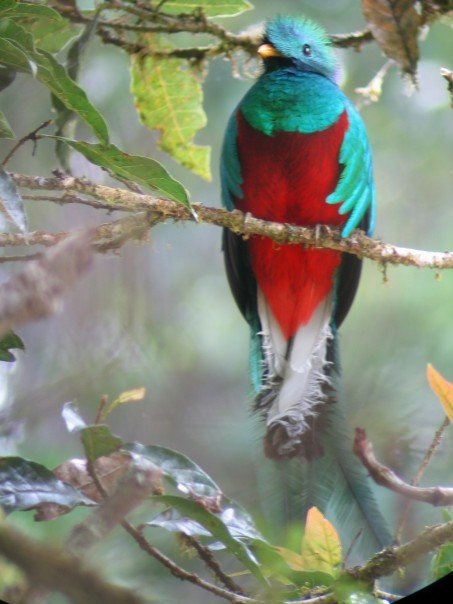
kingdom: Animalia
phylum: Chordata
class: Aves
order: Trogoniformes
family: Trogonidae
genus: Pharomachrus
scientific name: Pharomachrus mocinno
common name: Resplendent quetzal
